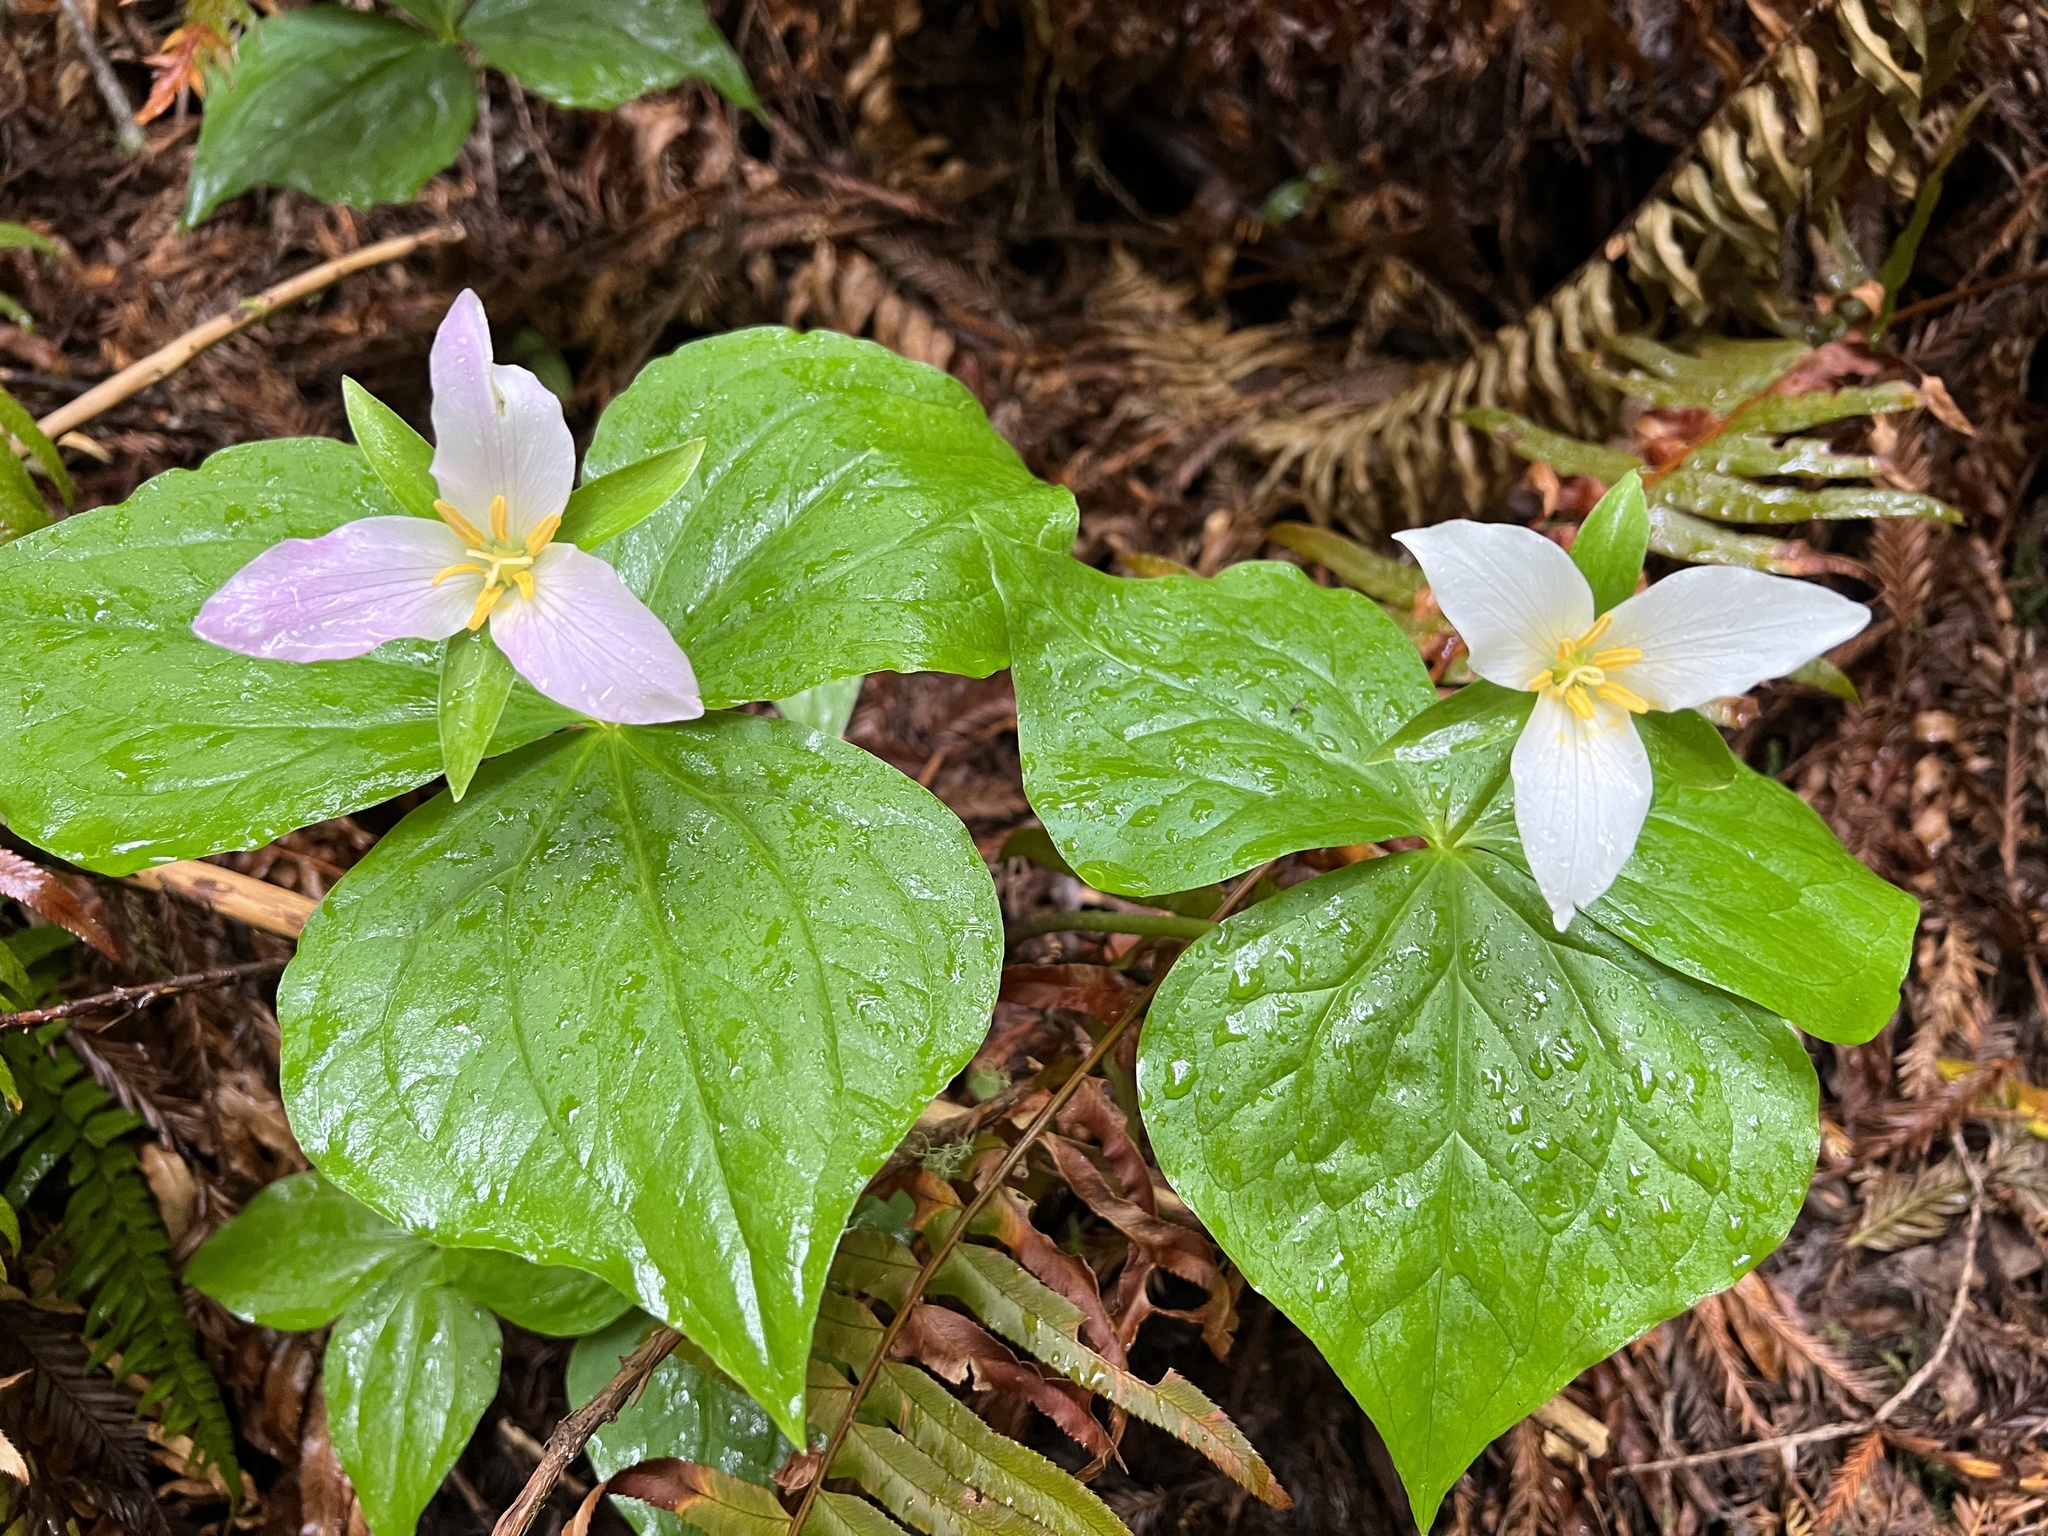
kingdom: Plantae
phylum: Tracheophyta
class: Liliopsida
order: Liliales
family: Melanthiaceae
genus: Trillium
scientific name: Trillium ovatum
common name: Pacific trillium
